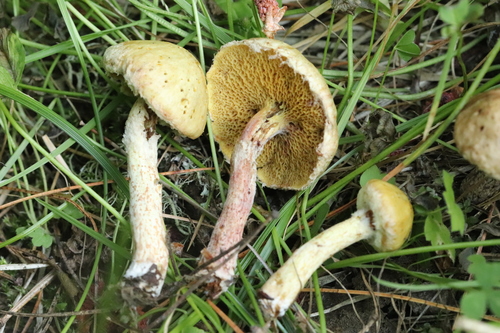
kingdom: Fungi
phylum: Basidiomycota
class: Agaricomycetes
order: Boletales
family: Suillaceae
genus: Suillus
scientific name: Suillus americanus
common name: Chicken fat mushroom
